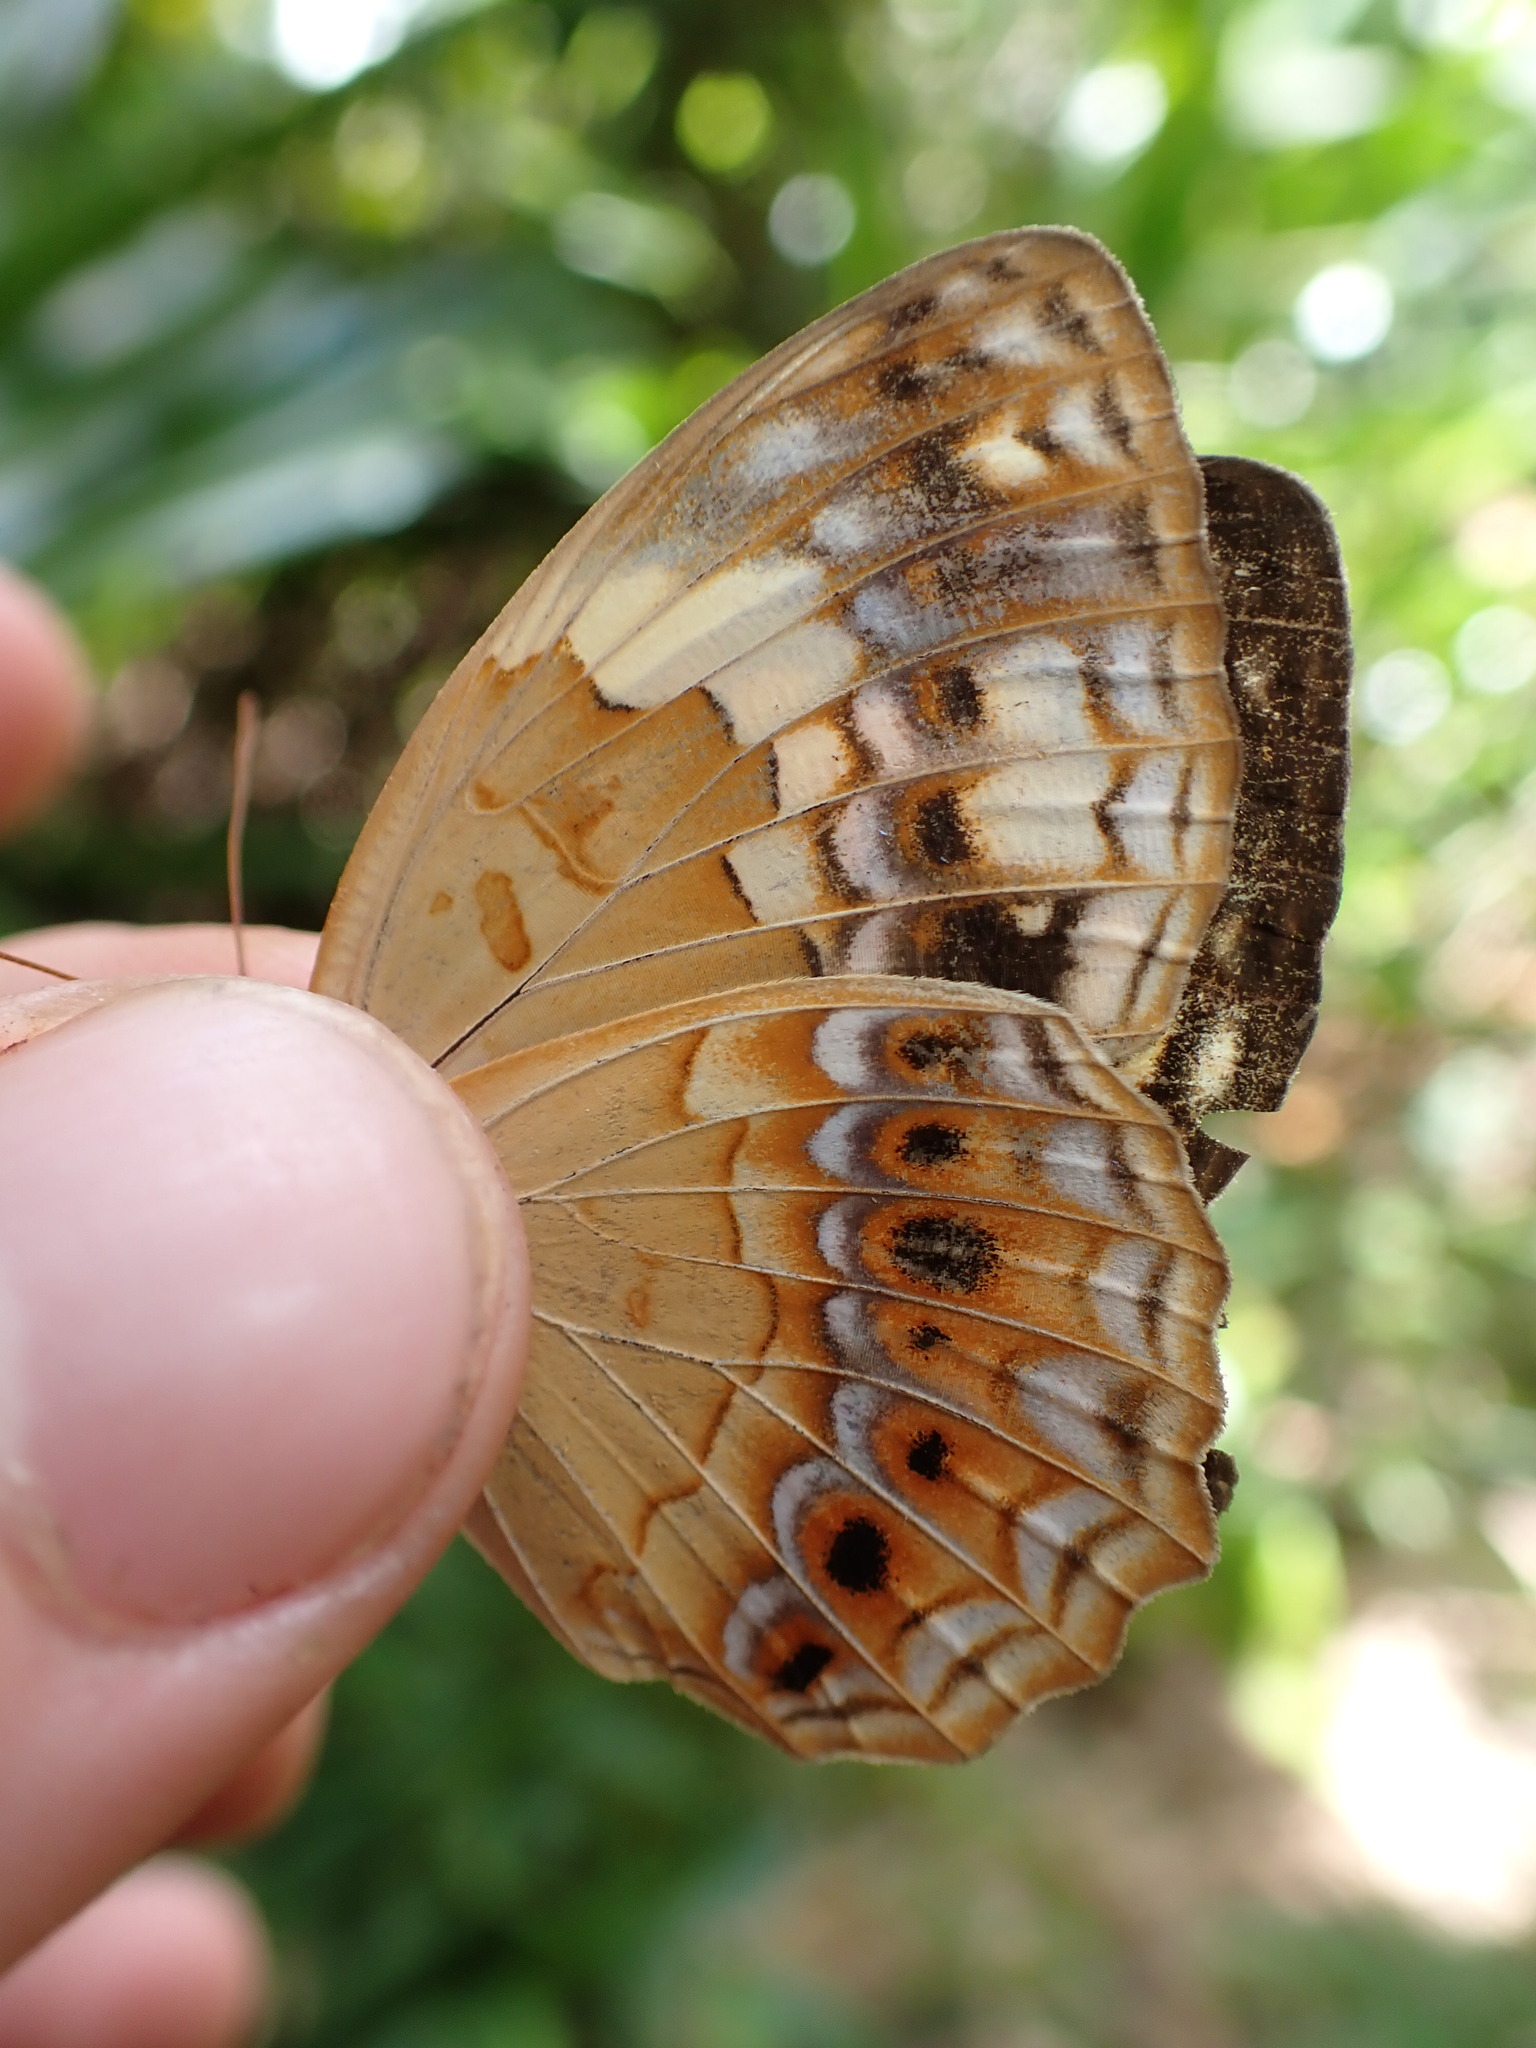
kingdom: Animalia
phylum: Arthropoda
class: Insecta
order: Lepidoptera
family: Nymphalidae
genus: Cupha
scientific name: Cupha erymanthis
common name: Rustic
